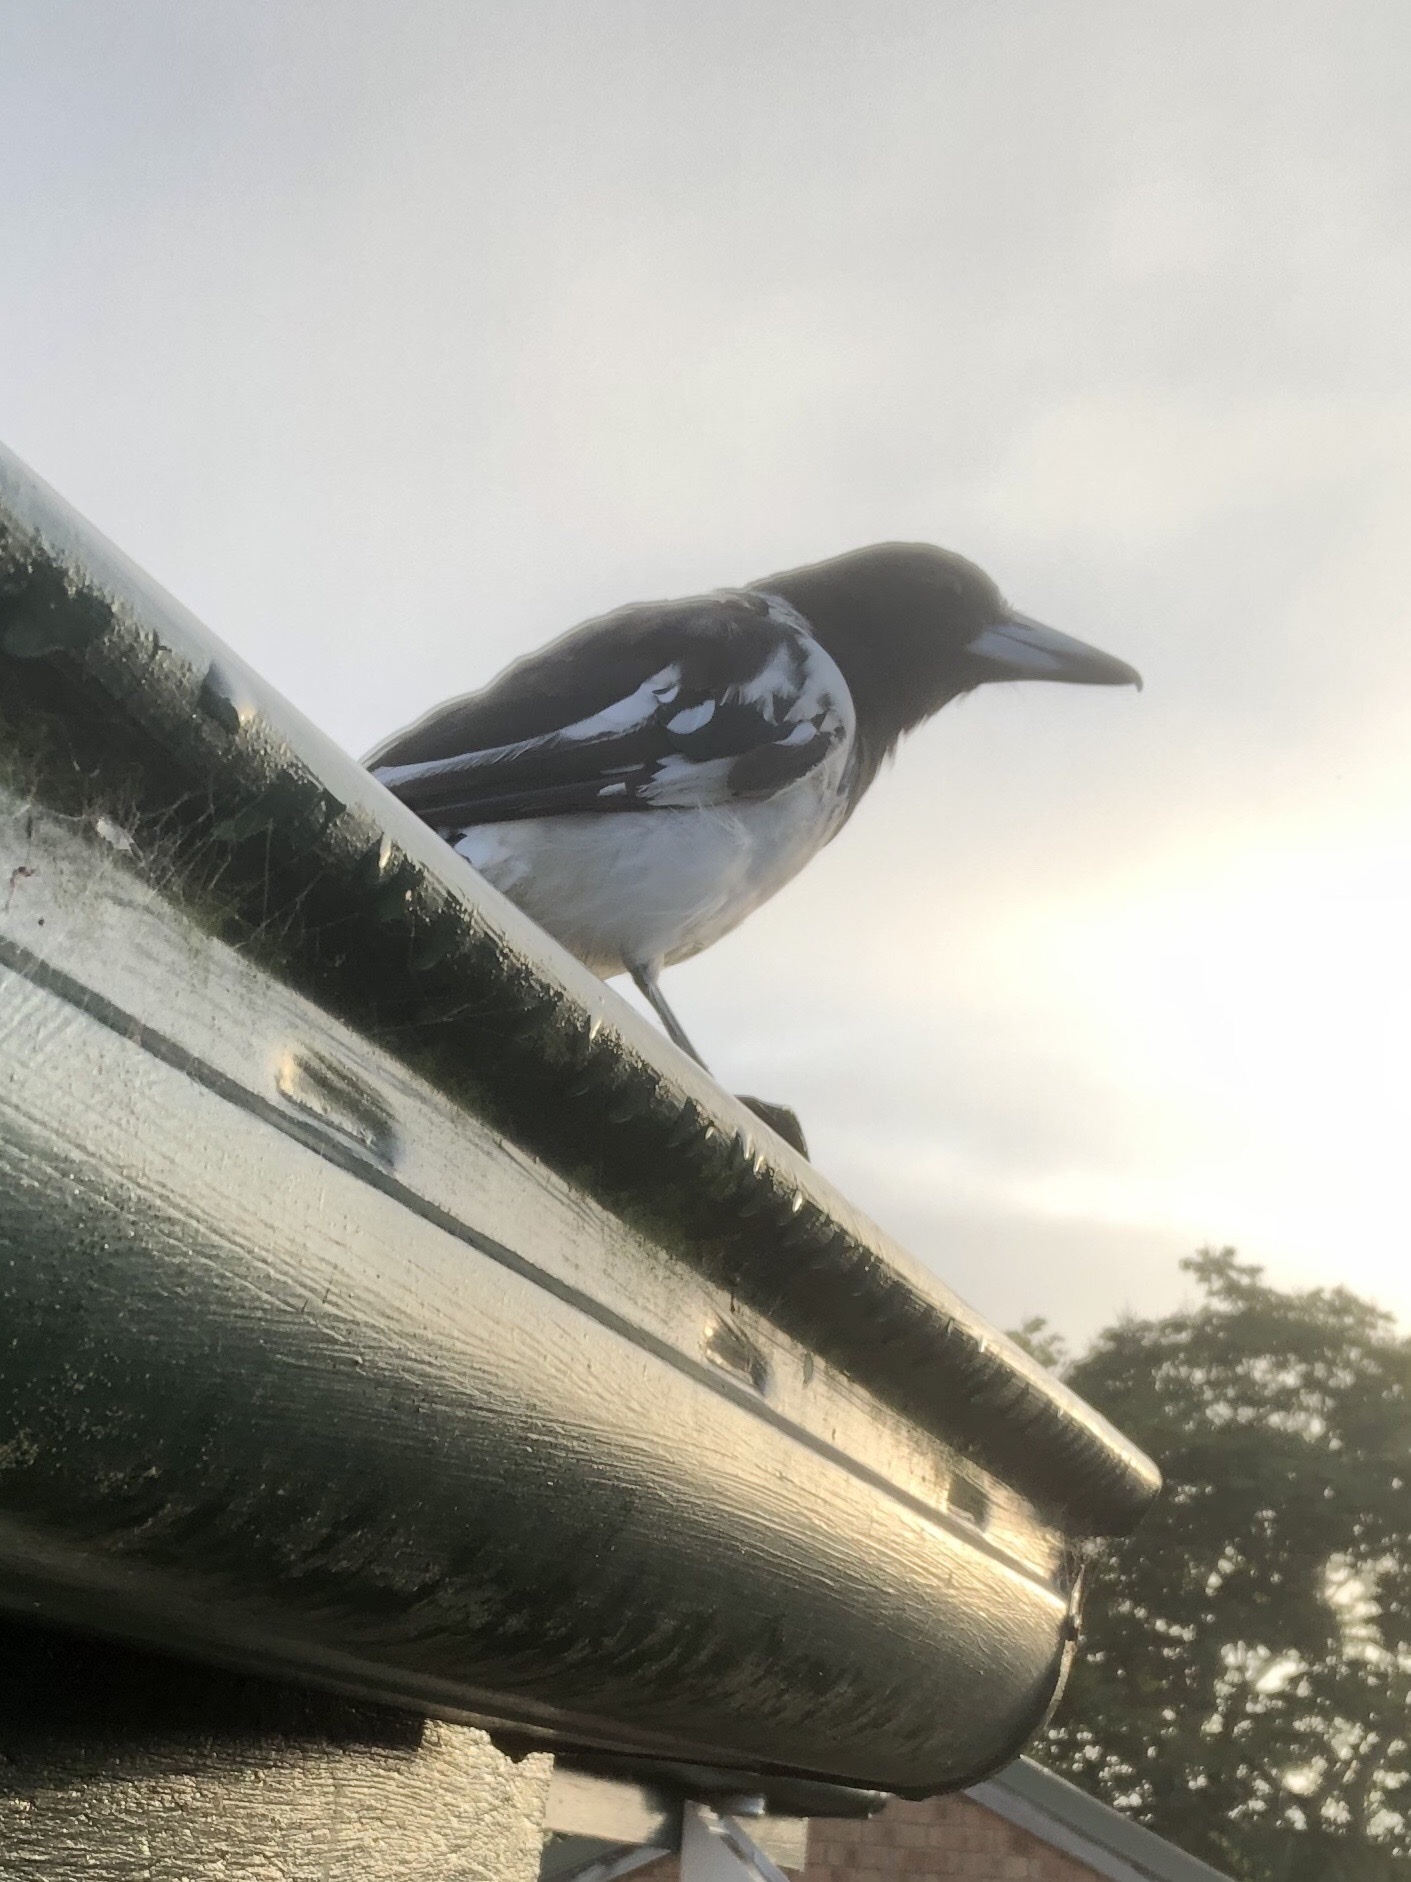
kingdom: Animalia
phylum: Chordata
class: Aves
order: Passeriformes
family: Cracticidae
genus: Cracticus
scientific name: Cracticus nigrogularis
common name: Pied butcherbird
